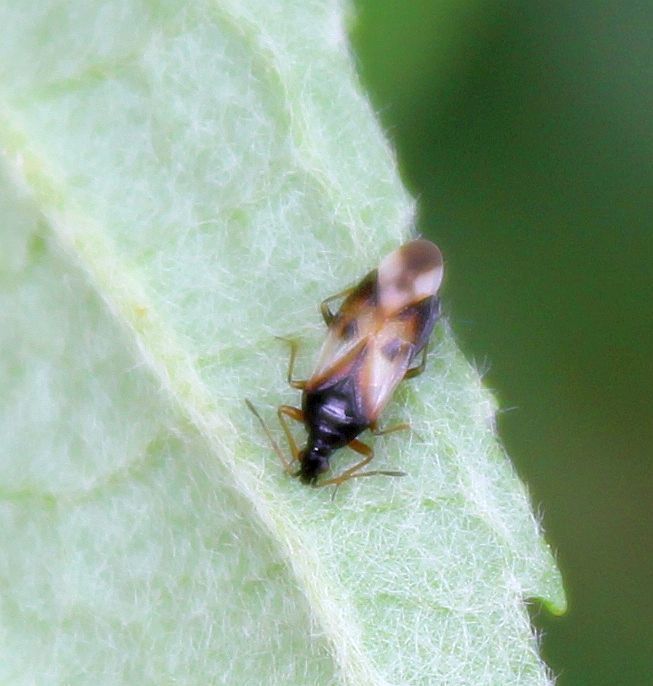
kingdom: Animalia
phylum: Arthropoda
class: Insecta
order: Hemiptera
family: Anthocoridae
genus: Anthocoris
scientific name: Anthocoris nemorum
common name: Minute pirate bug
